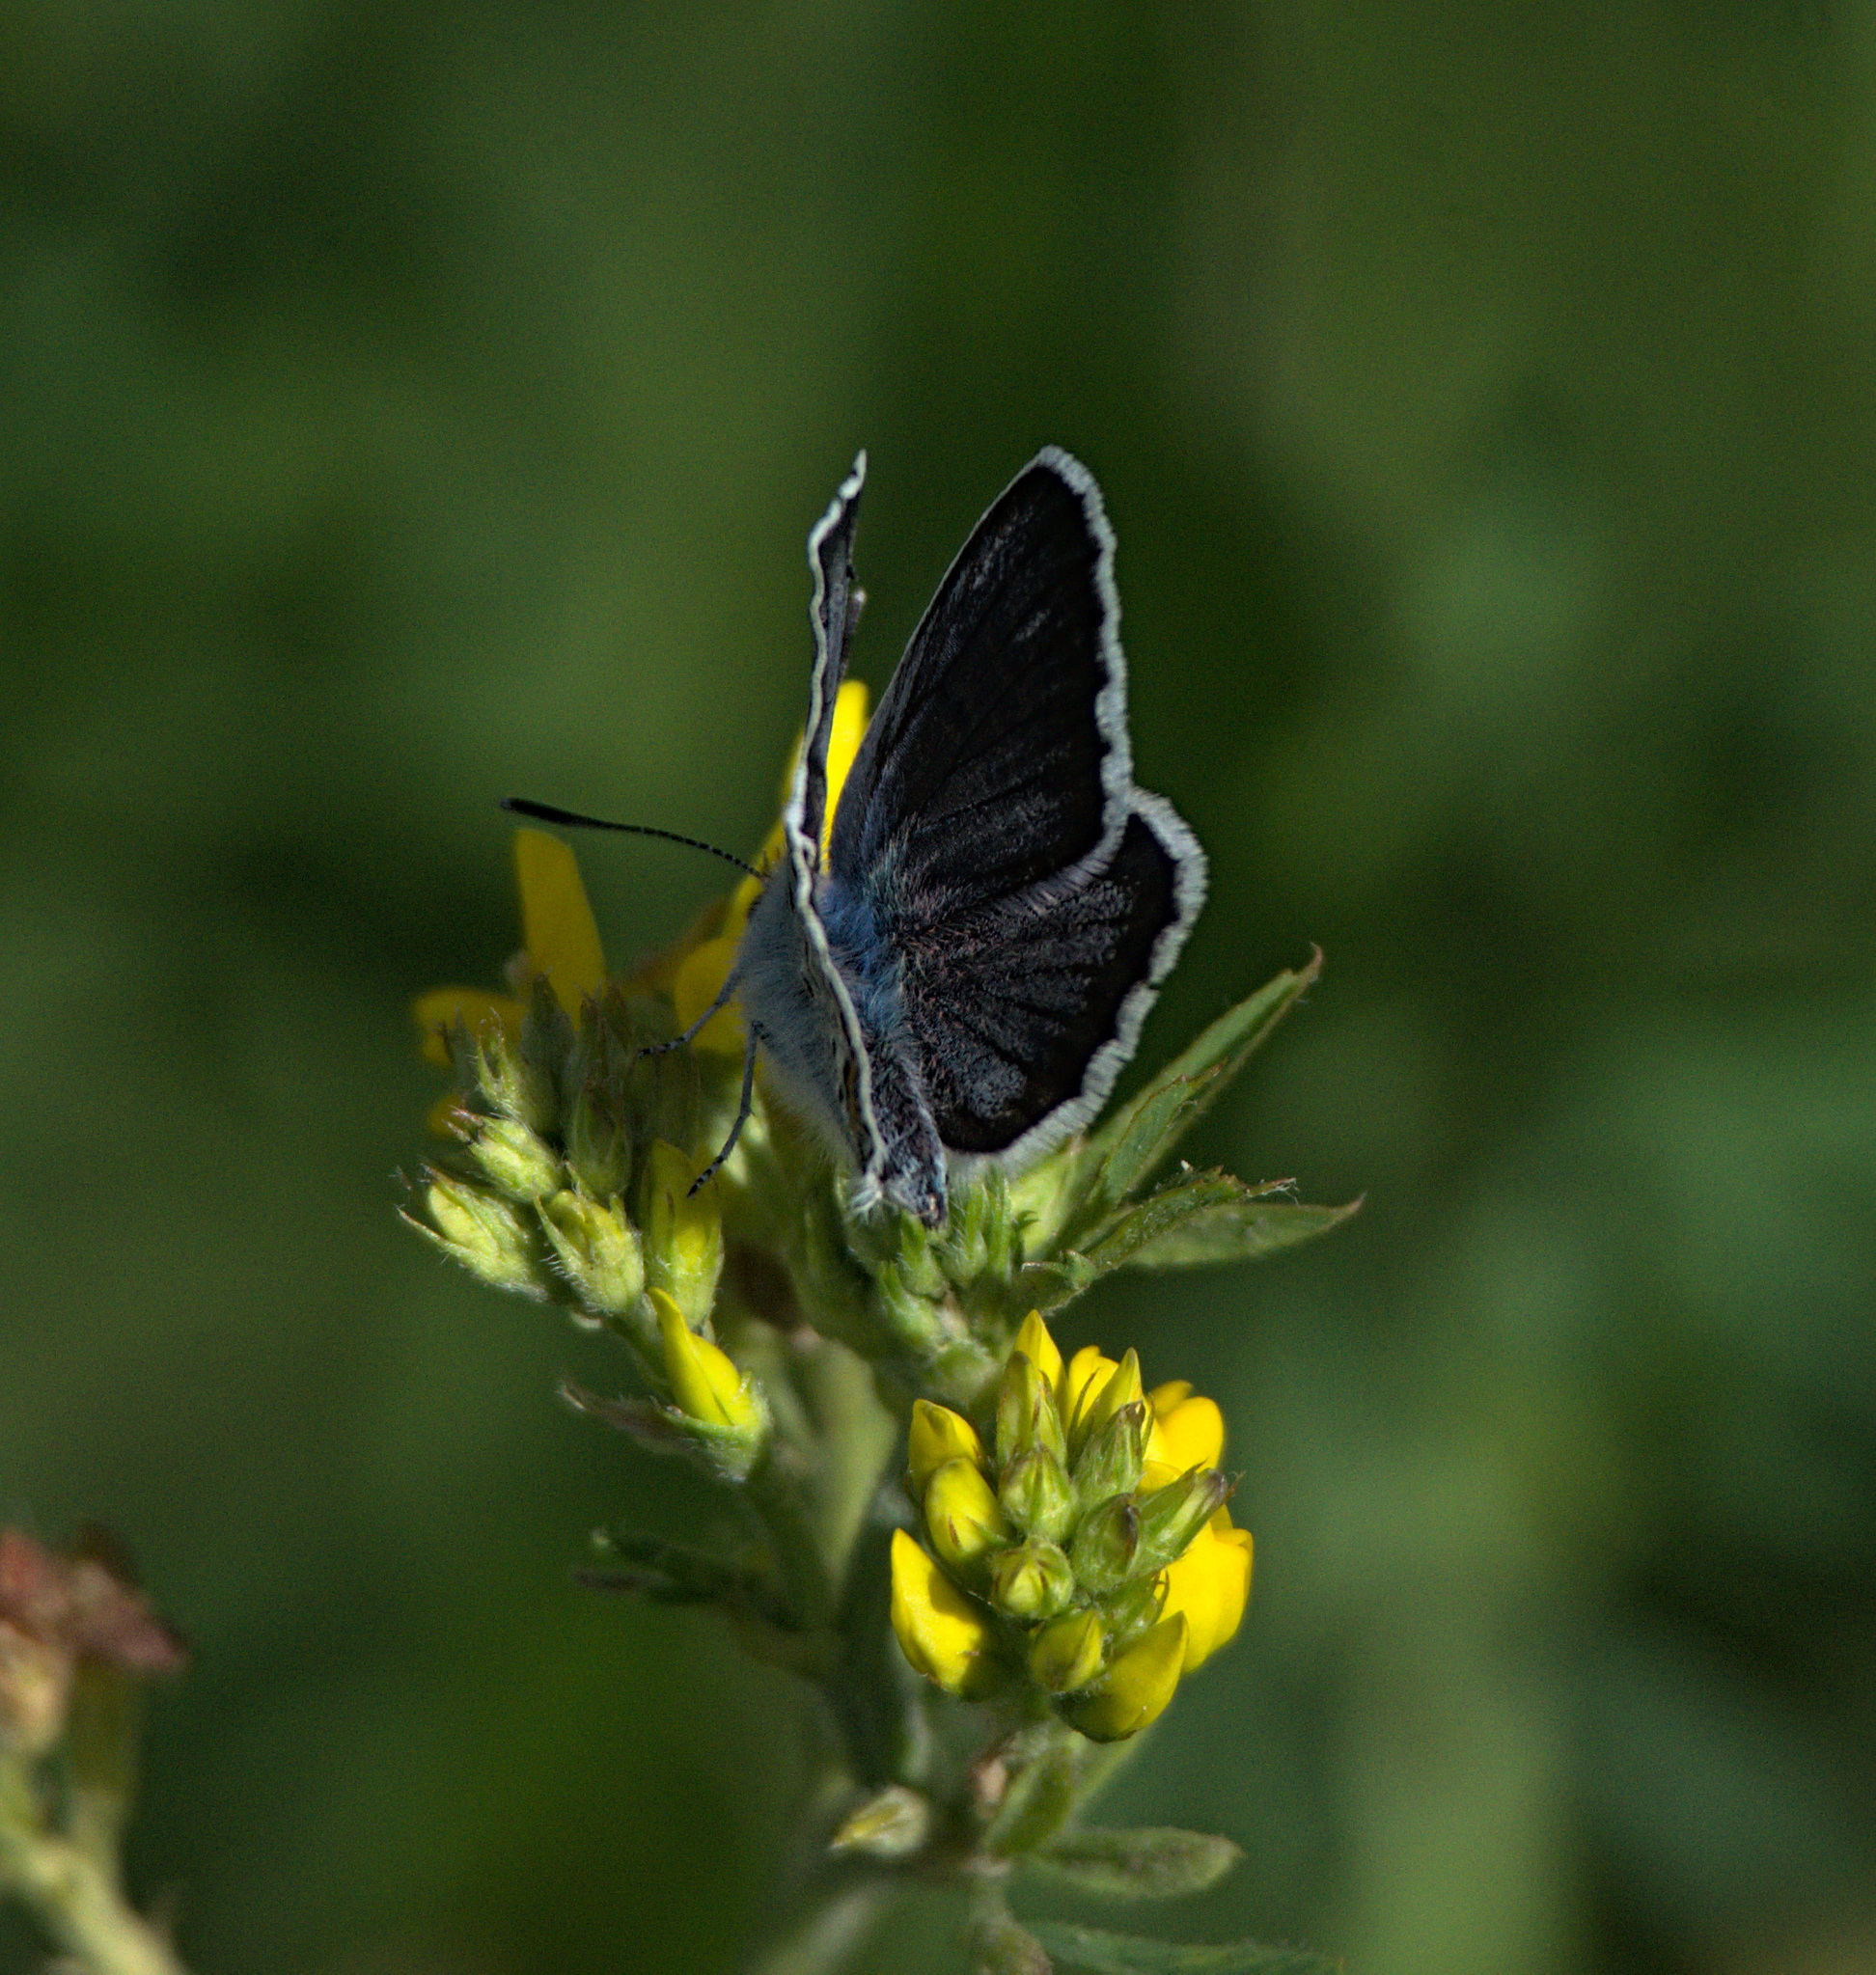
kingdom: Animalia
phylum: Arthropoda
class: Insecta
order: Lepidoptera
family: Lycaenidae
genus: Plebejus
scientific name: Plebejus argus
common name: Silver-studded blue
